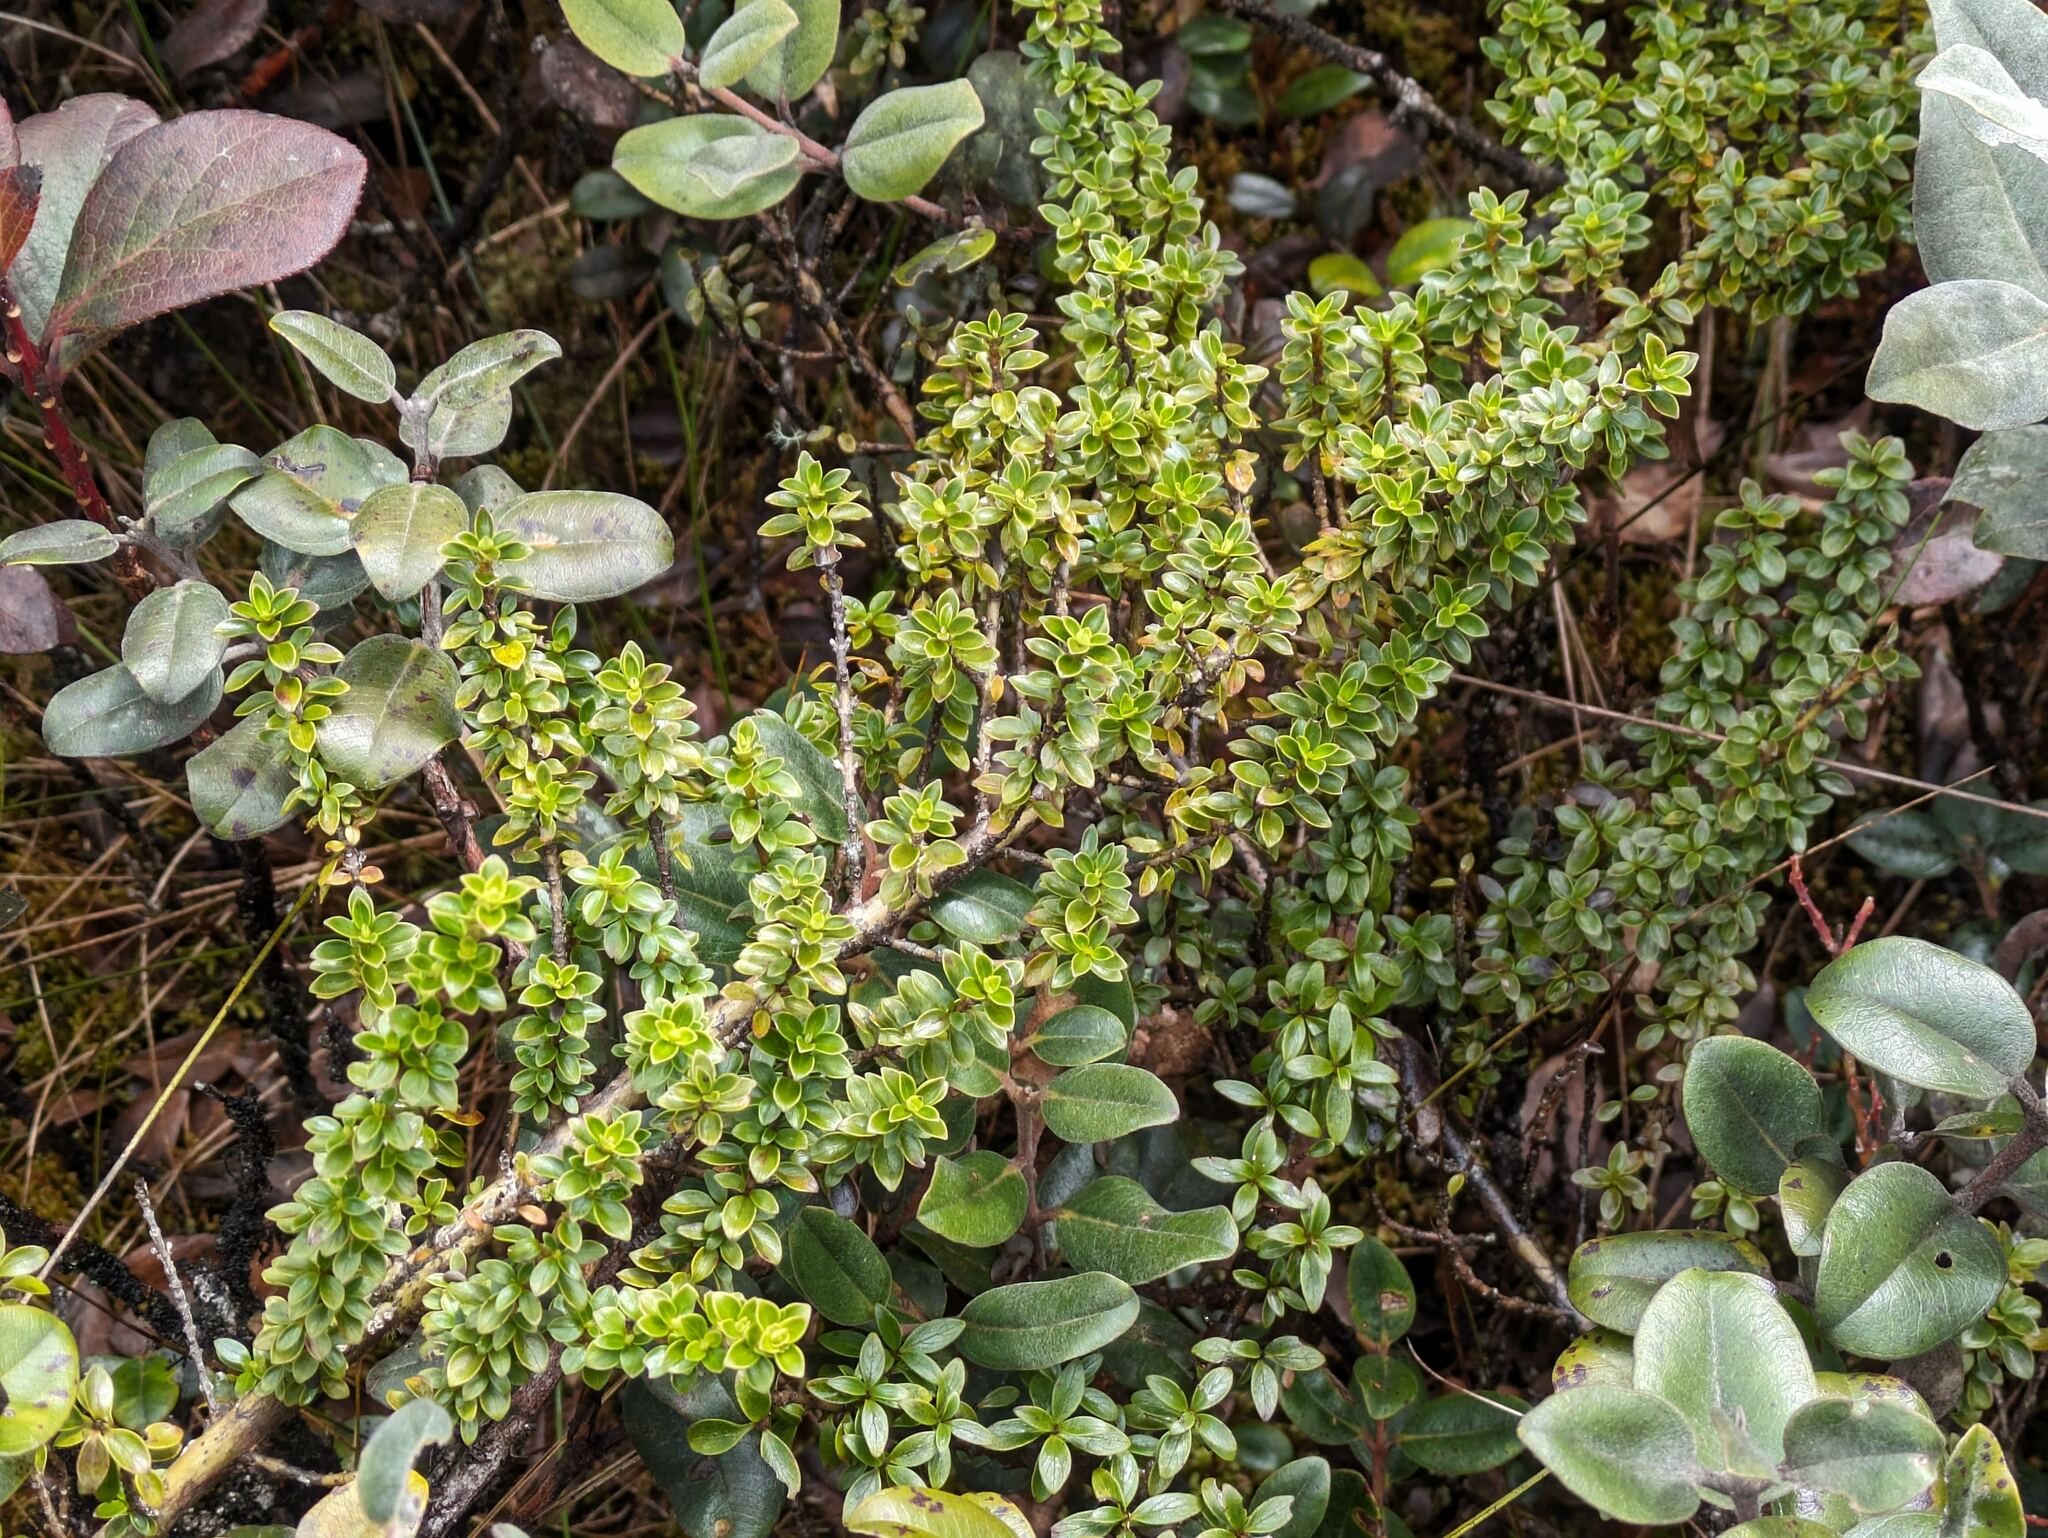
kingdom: Plantae
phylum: Tracheophyta
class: Magnoliopsida
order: Gentianales
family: Rubiaceae
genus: Coprosma
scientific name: Coprosma elliptica
